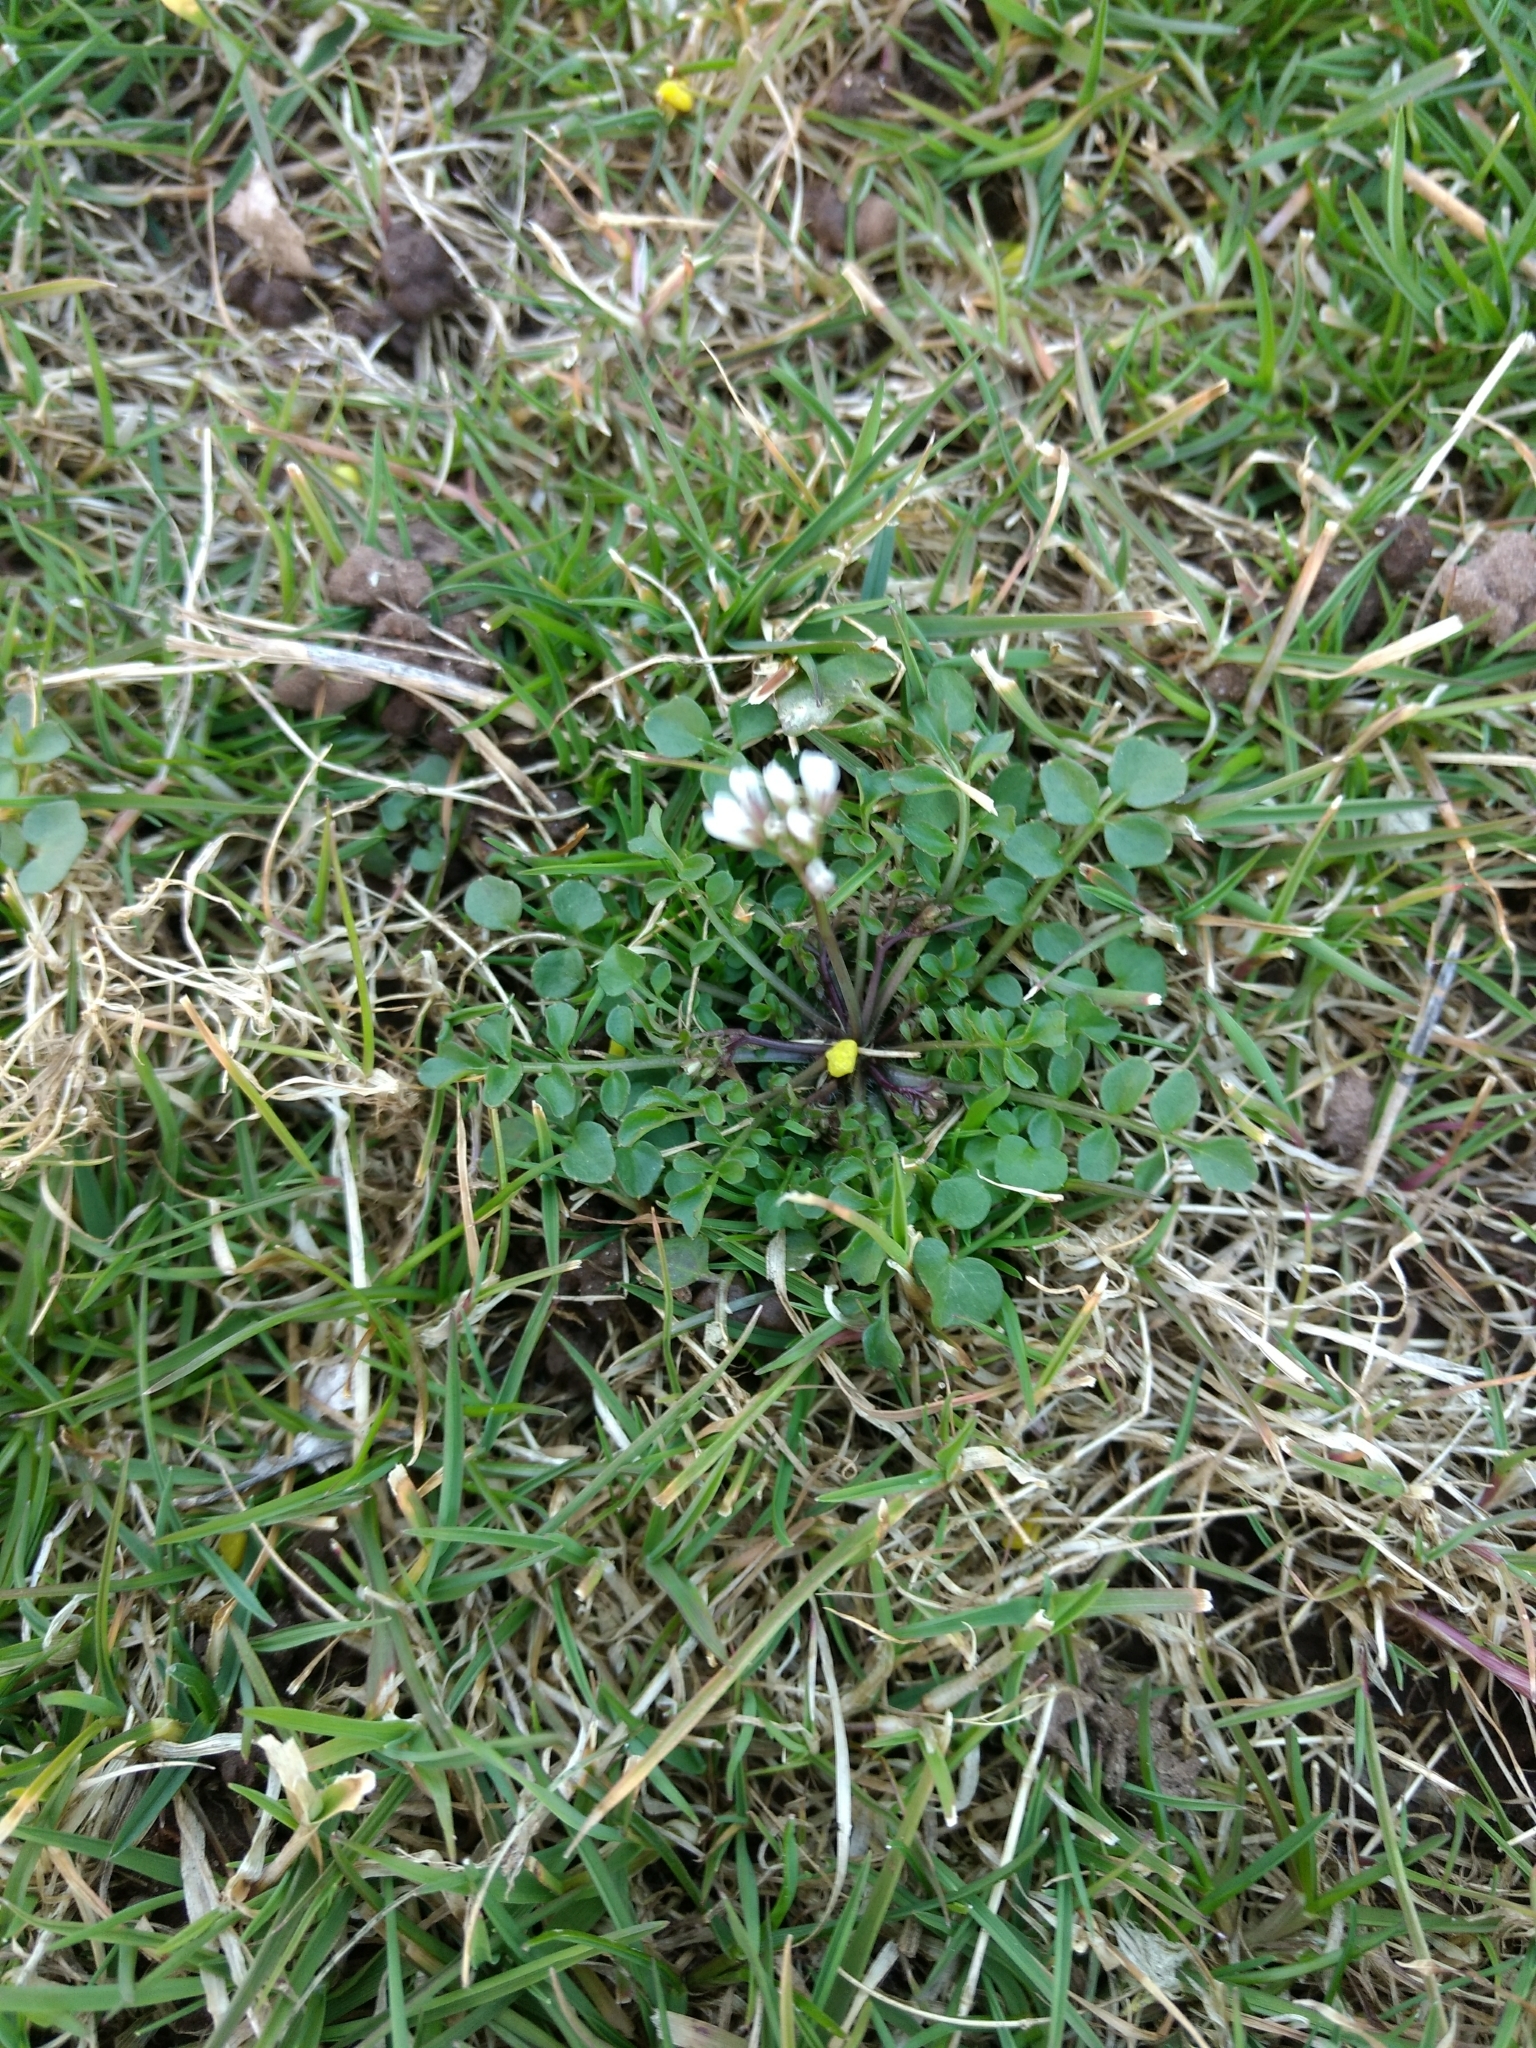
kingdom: Plantae
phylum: Tracheophyta
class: Magnoliopsida
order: Brassicales
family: Brassicaceae
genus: Cardamine
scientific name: Cardamine hirsuta
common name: Hairy bittercress
